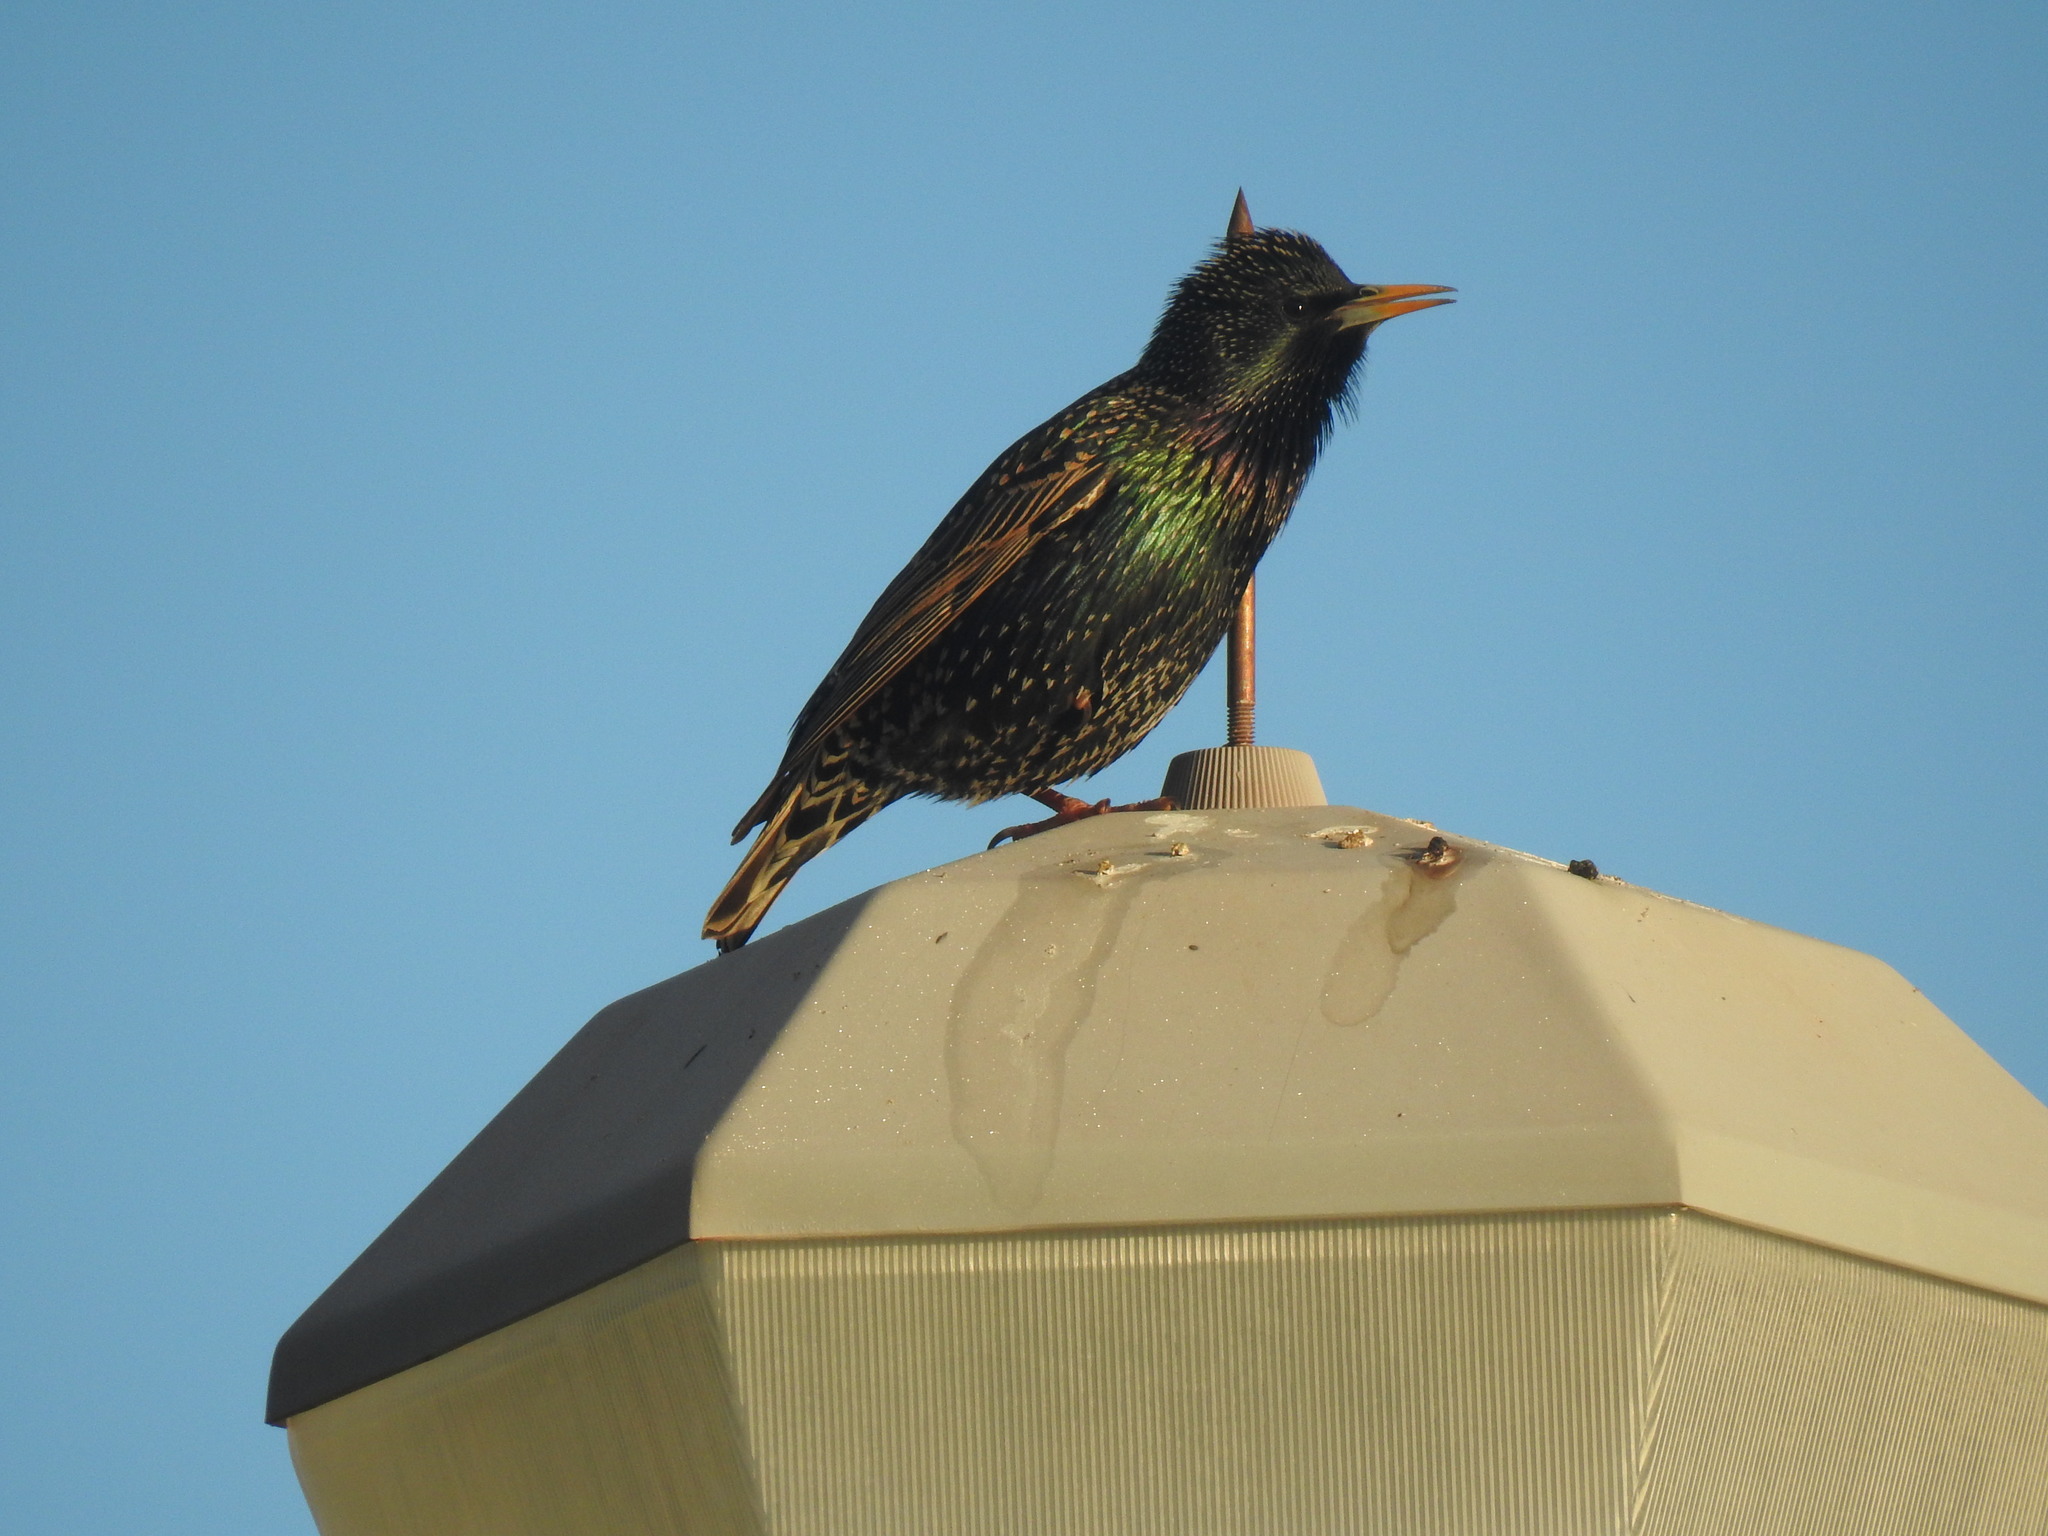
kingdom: Animalia
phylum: Chordata
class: Aves
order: Passeriformes
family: Sturnidae
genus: Sturnus
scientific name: Sturnus vulgaris
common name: Common starling
